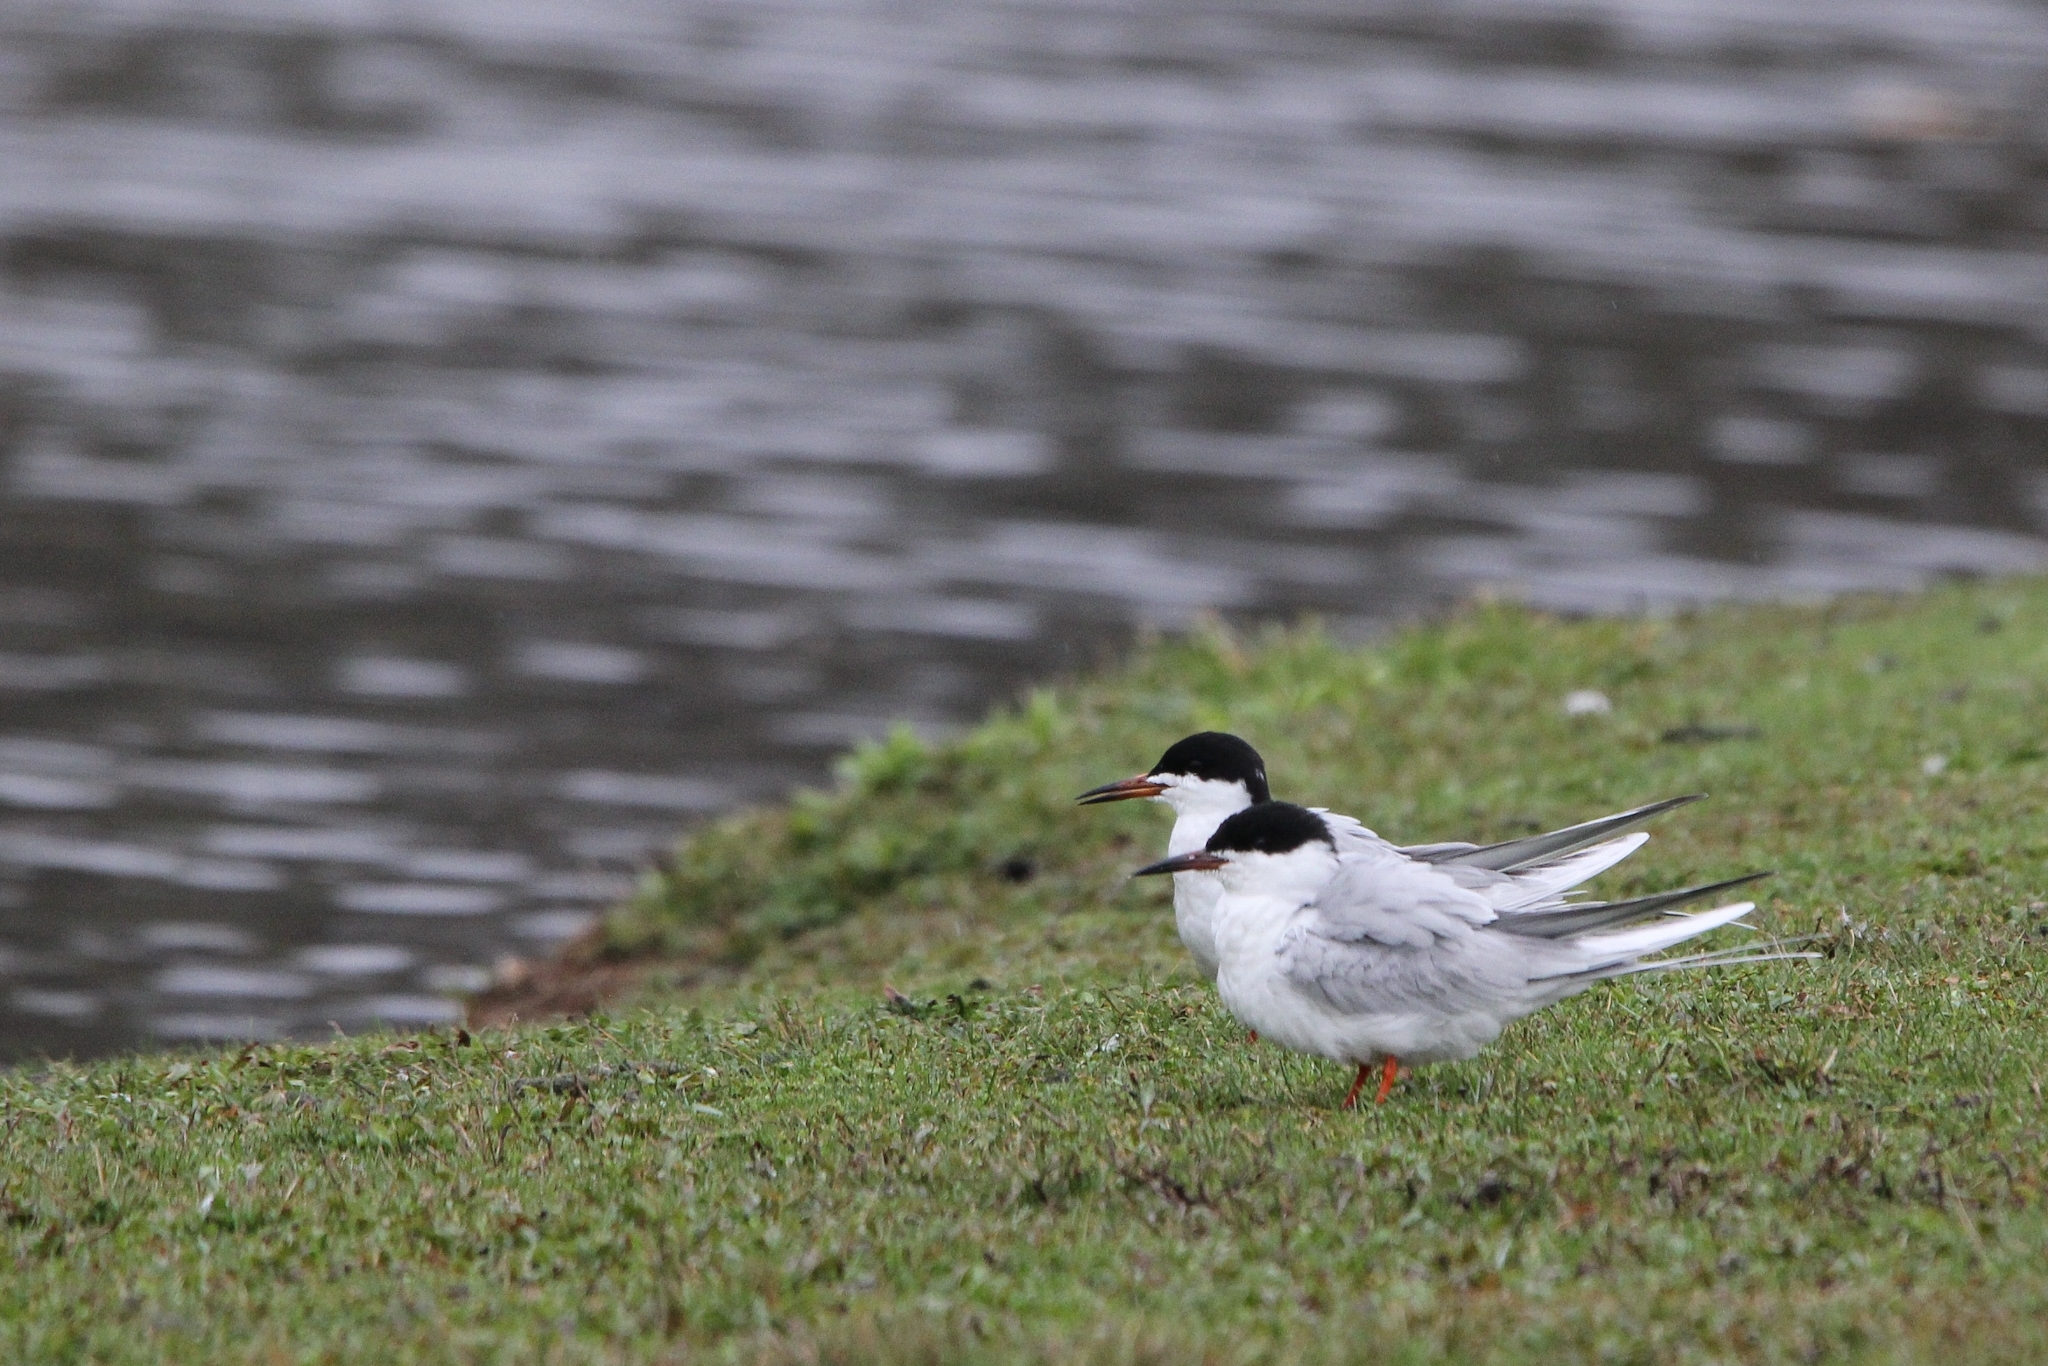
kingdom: Animalia
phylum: Chordata
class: Aves
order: Charadriiformes
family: Laridae
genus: Sterna
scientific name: Sterna forsteri
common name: Forster's tern
